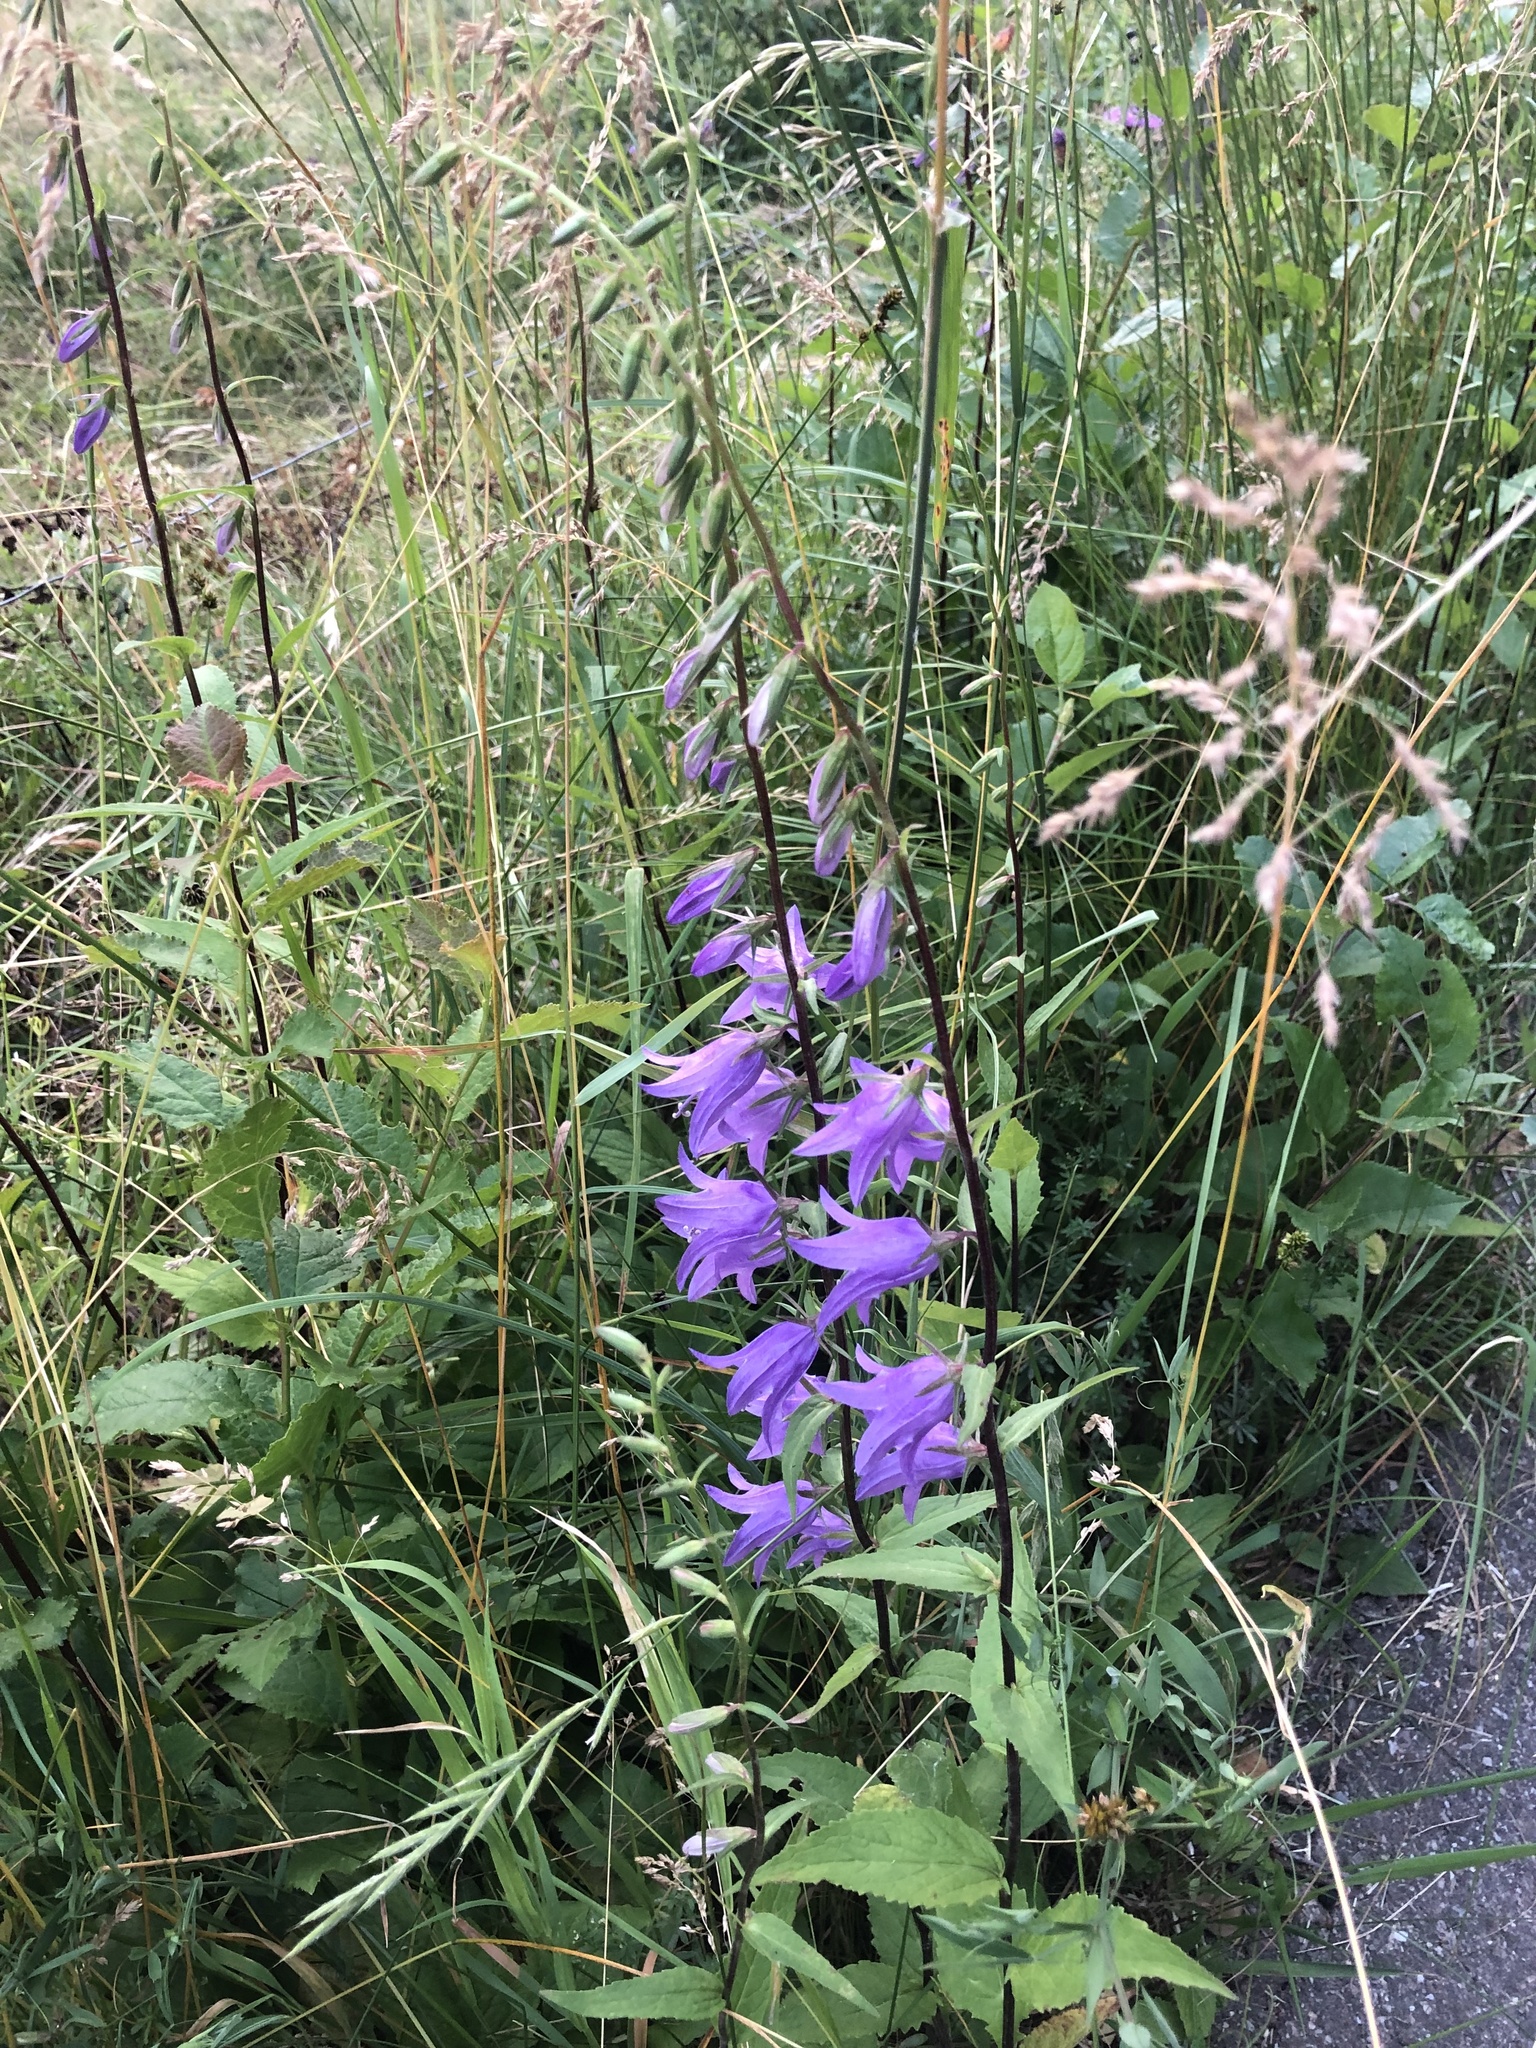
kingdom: Plantae
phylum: Tracheophyta
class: Magnoliopsida
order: Asterales
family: Campanulaceae
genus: Campanula
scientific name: Campanula rapunculoides
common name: Creeping bellflower
